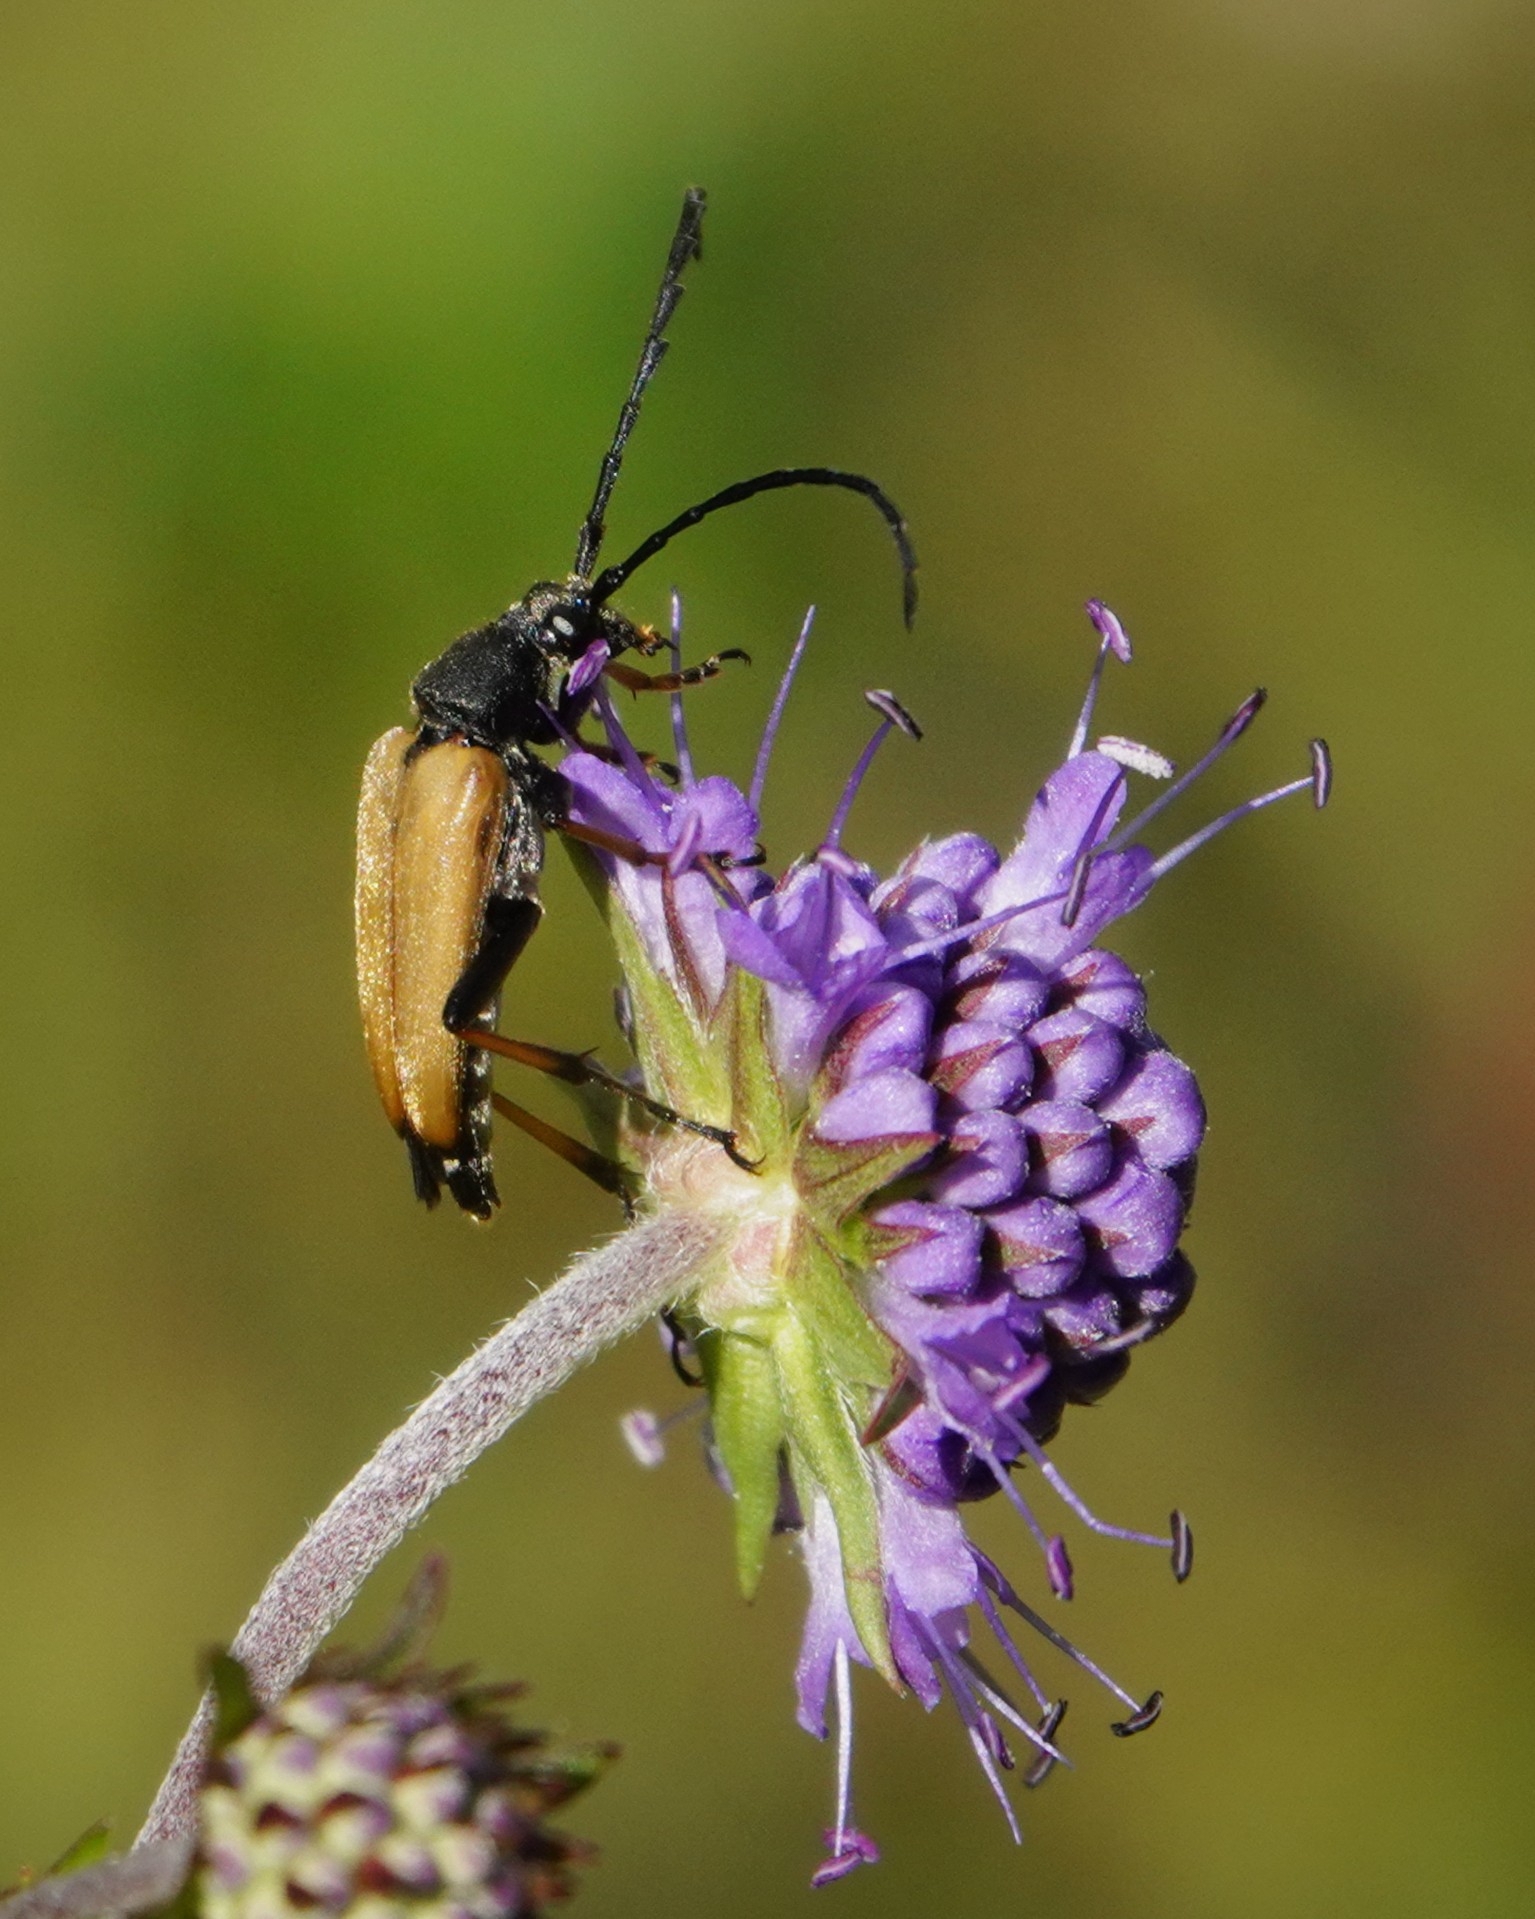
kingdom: Animalia
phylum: Arthropoda
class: Insecta
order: Coleoptera
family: Cerambycidae
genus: Stictoleptura
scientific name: Stictoleptura rubra
